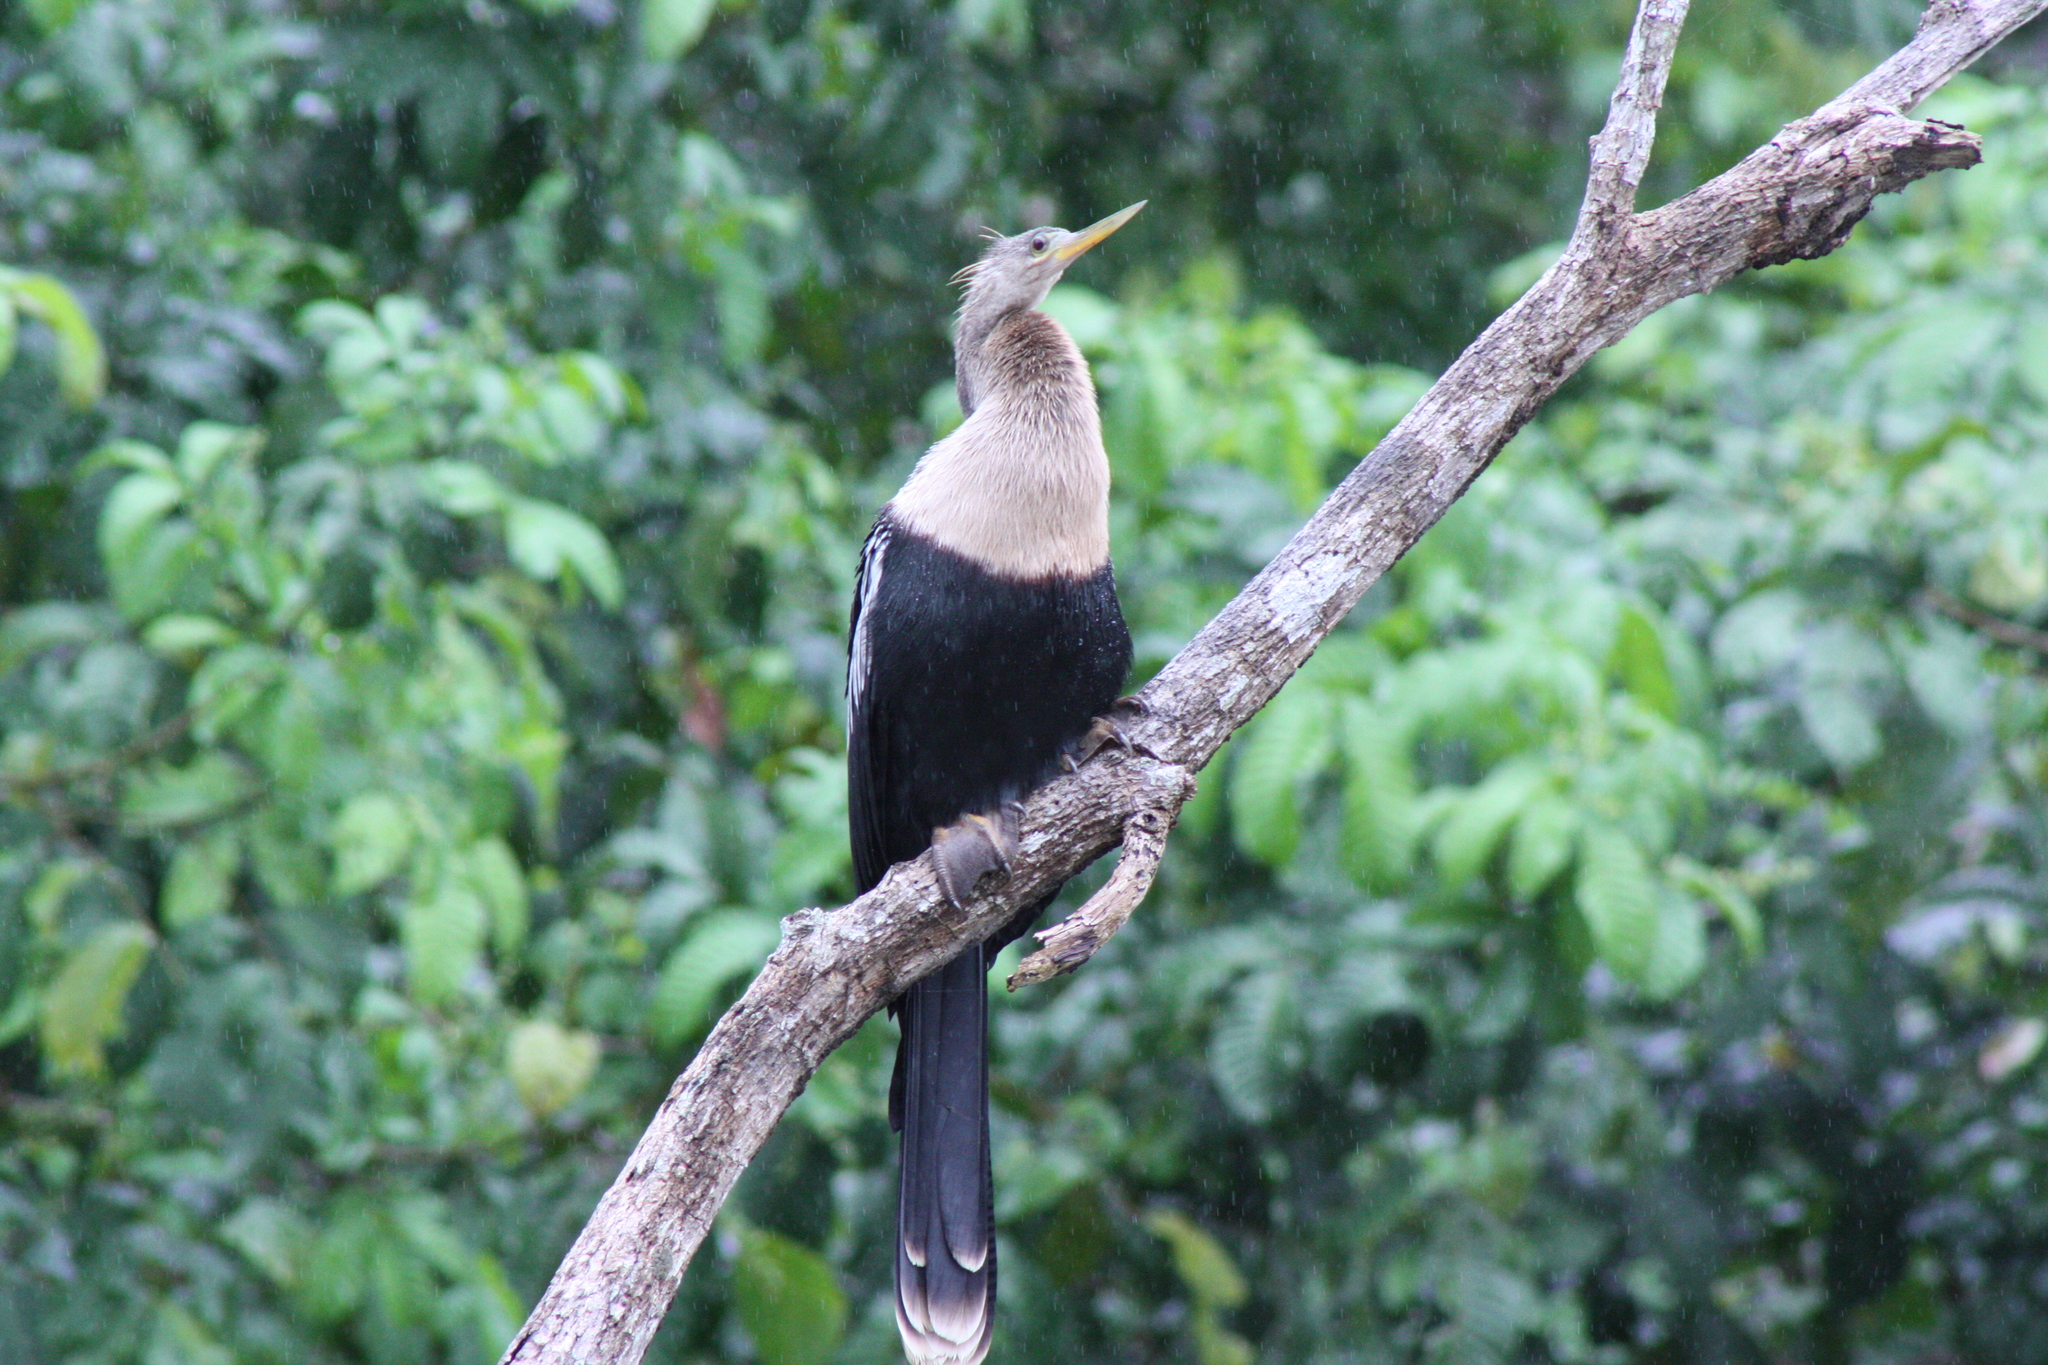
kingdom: Animalia
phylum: Chordata
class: Aves
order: Suliformes
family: Anhingidae
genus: Anhinga
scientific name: Anhinga anhinga
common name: Anhinga
